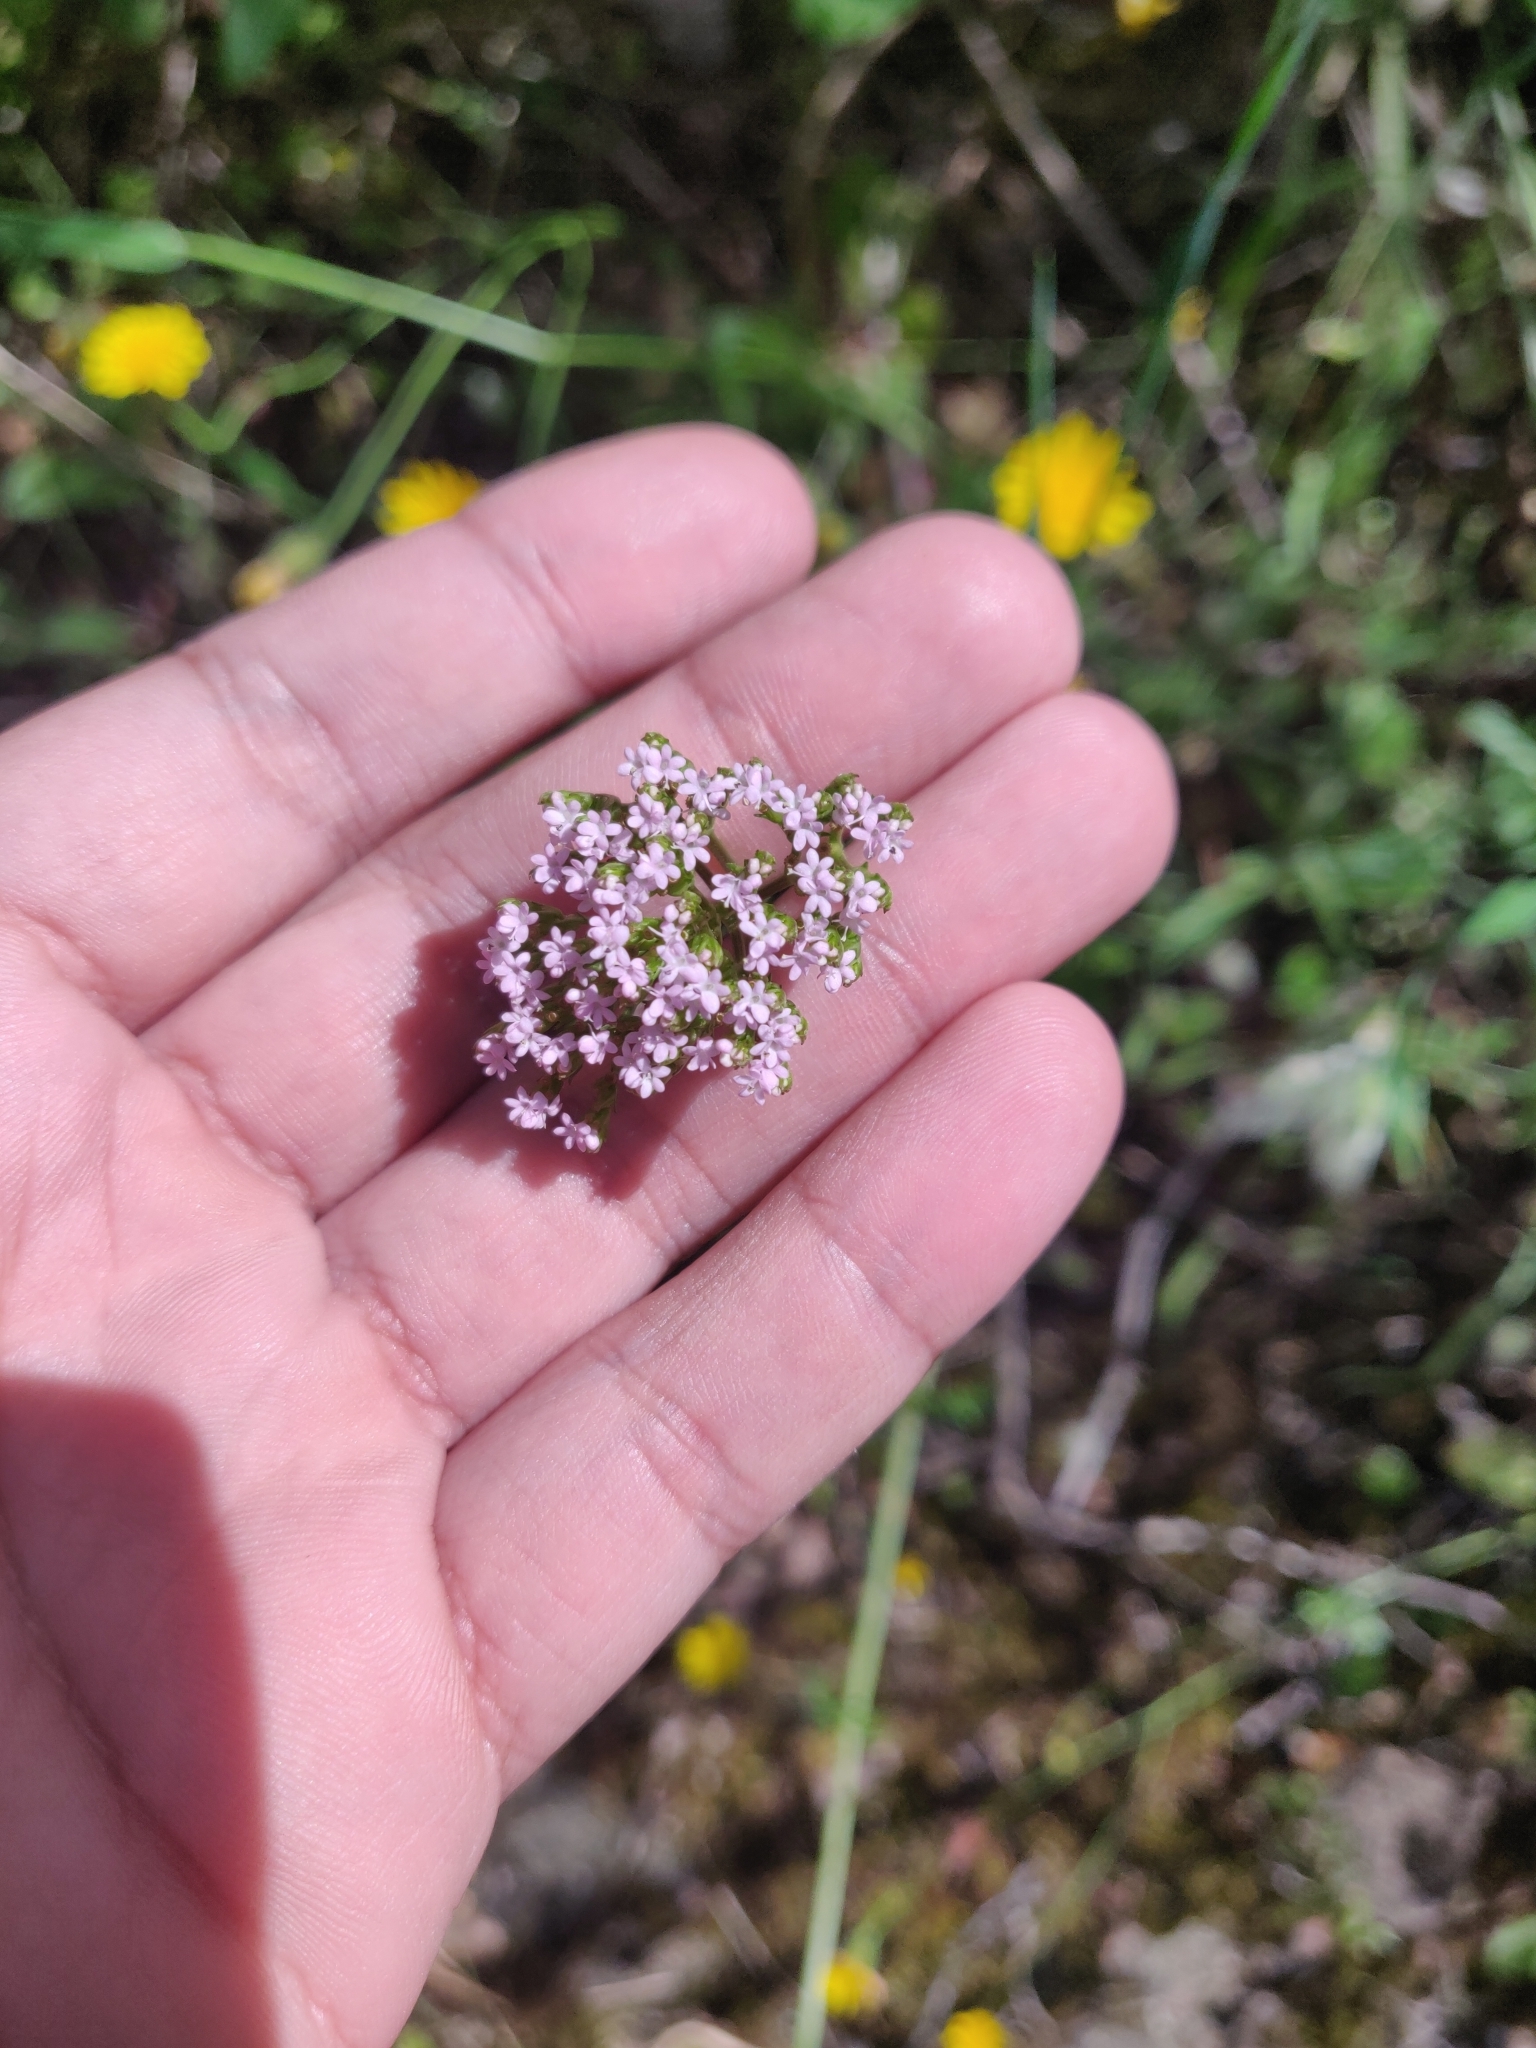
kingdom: Plantae
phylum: Tracheophyta
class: Magnoliopsida
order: Dipsacales
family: Caprifoliaceae
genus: Centranthus
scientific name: Centranthus calcitrapae
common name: Annual valerian
